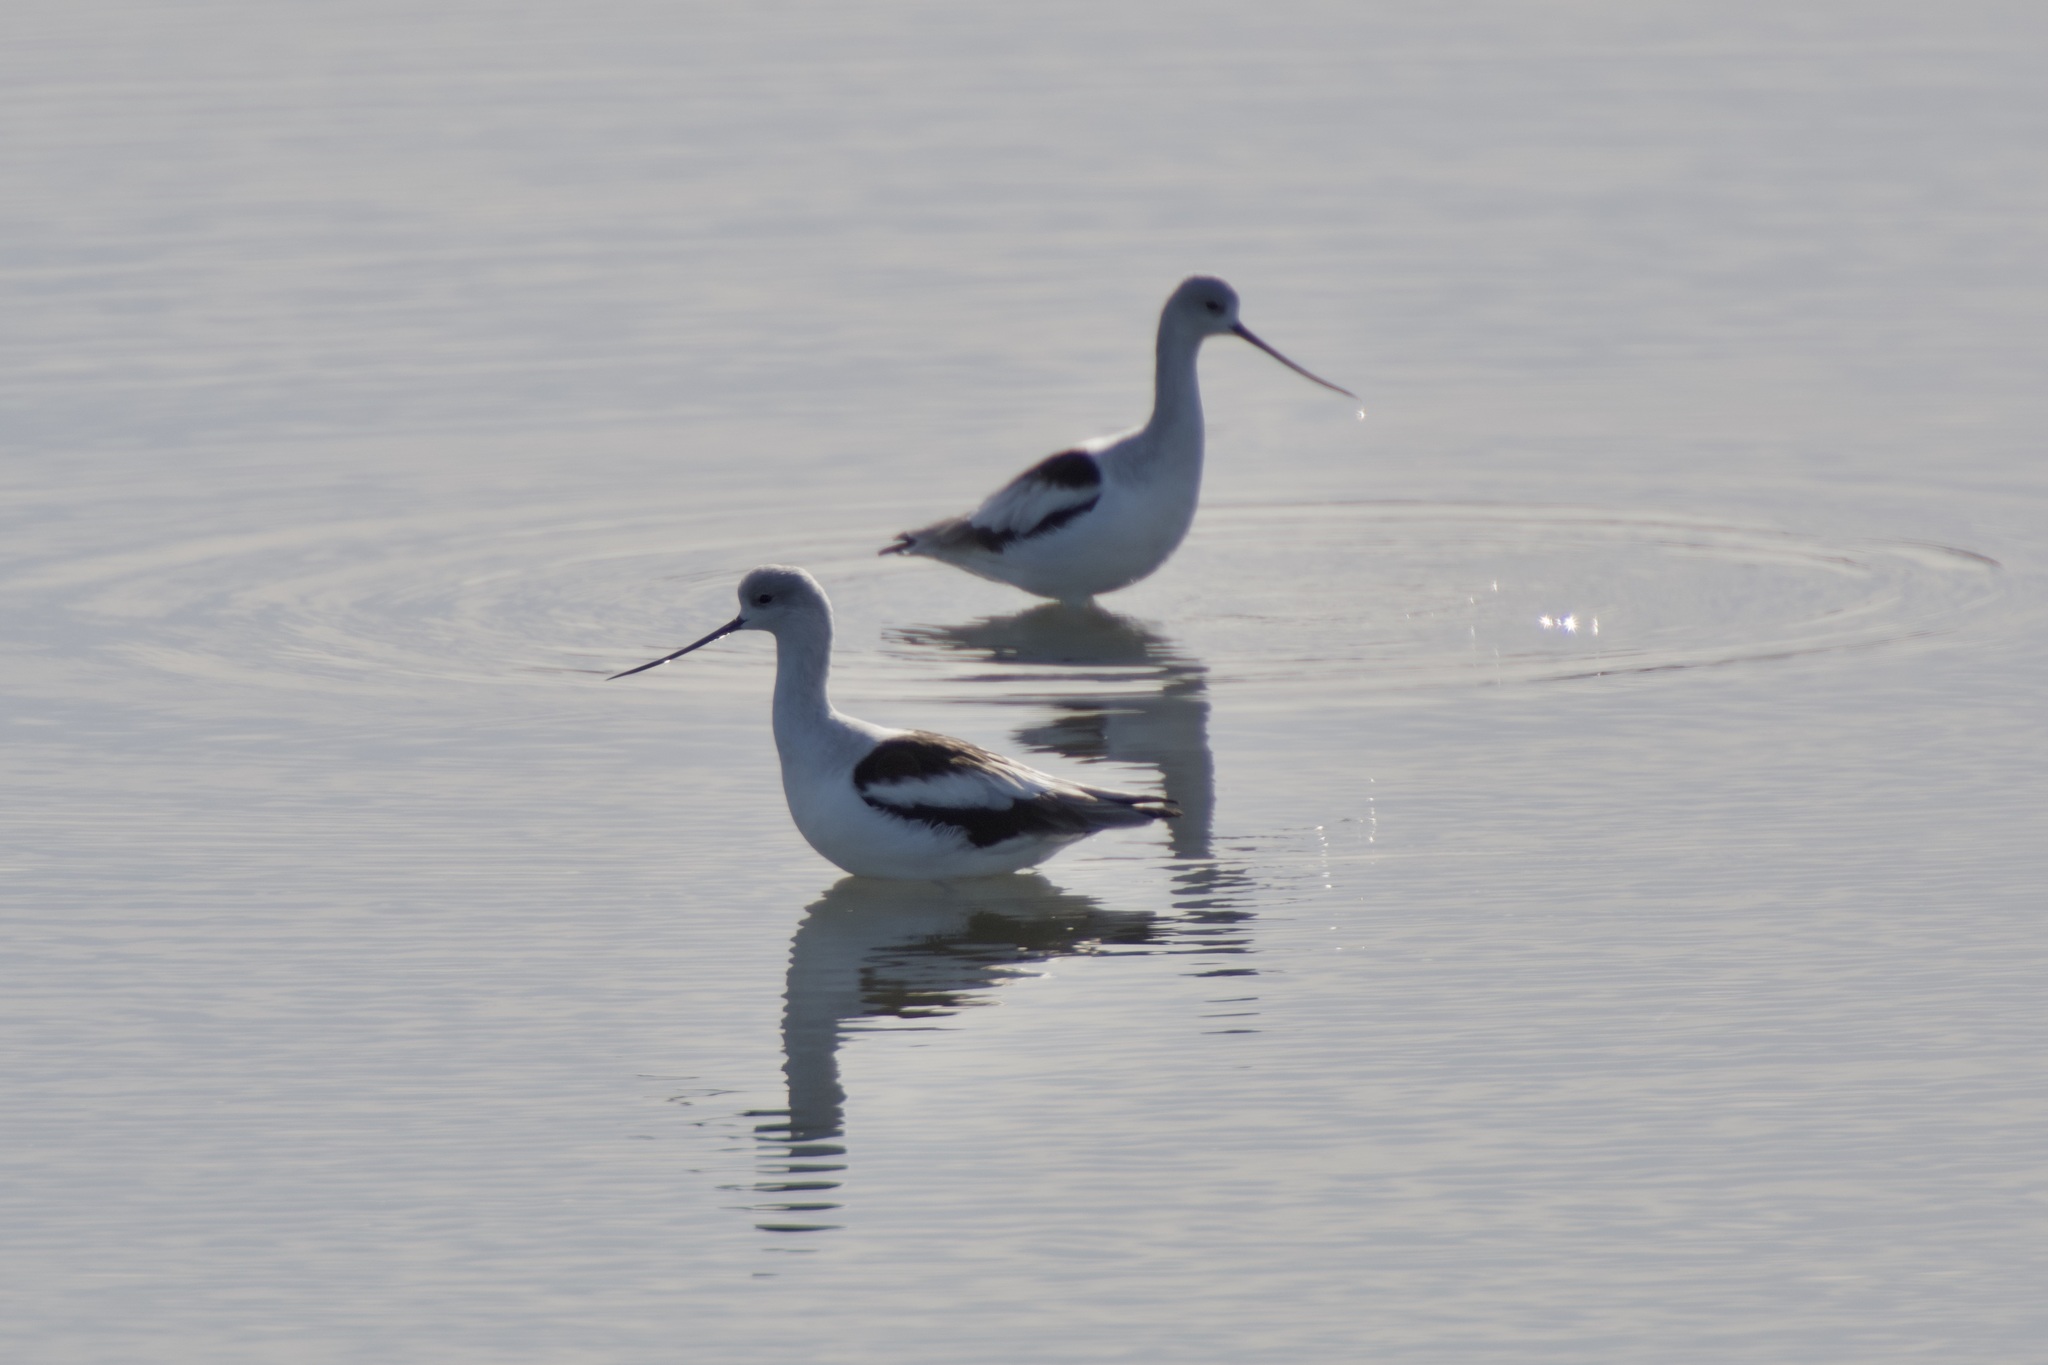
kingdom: Animalia
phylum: Chordata
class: Aves
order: Charadriiformes
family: Recurvirostridae
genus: Recurvirostra
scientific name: Recurvirostra americana
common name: American avocet
